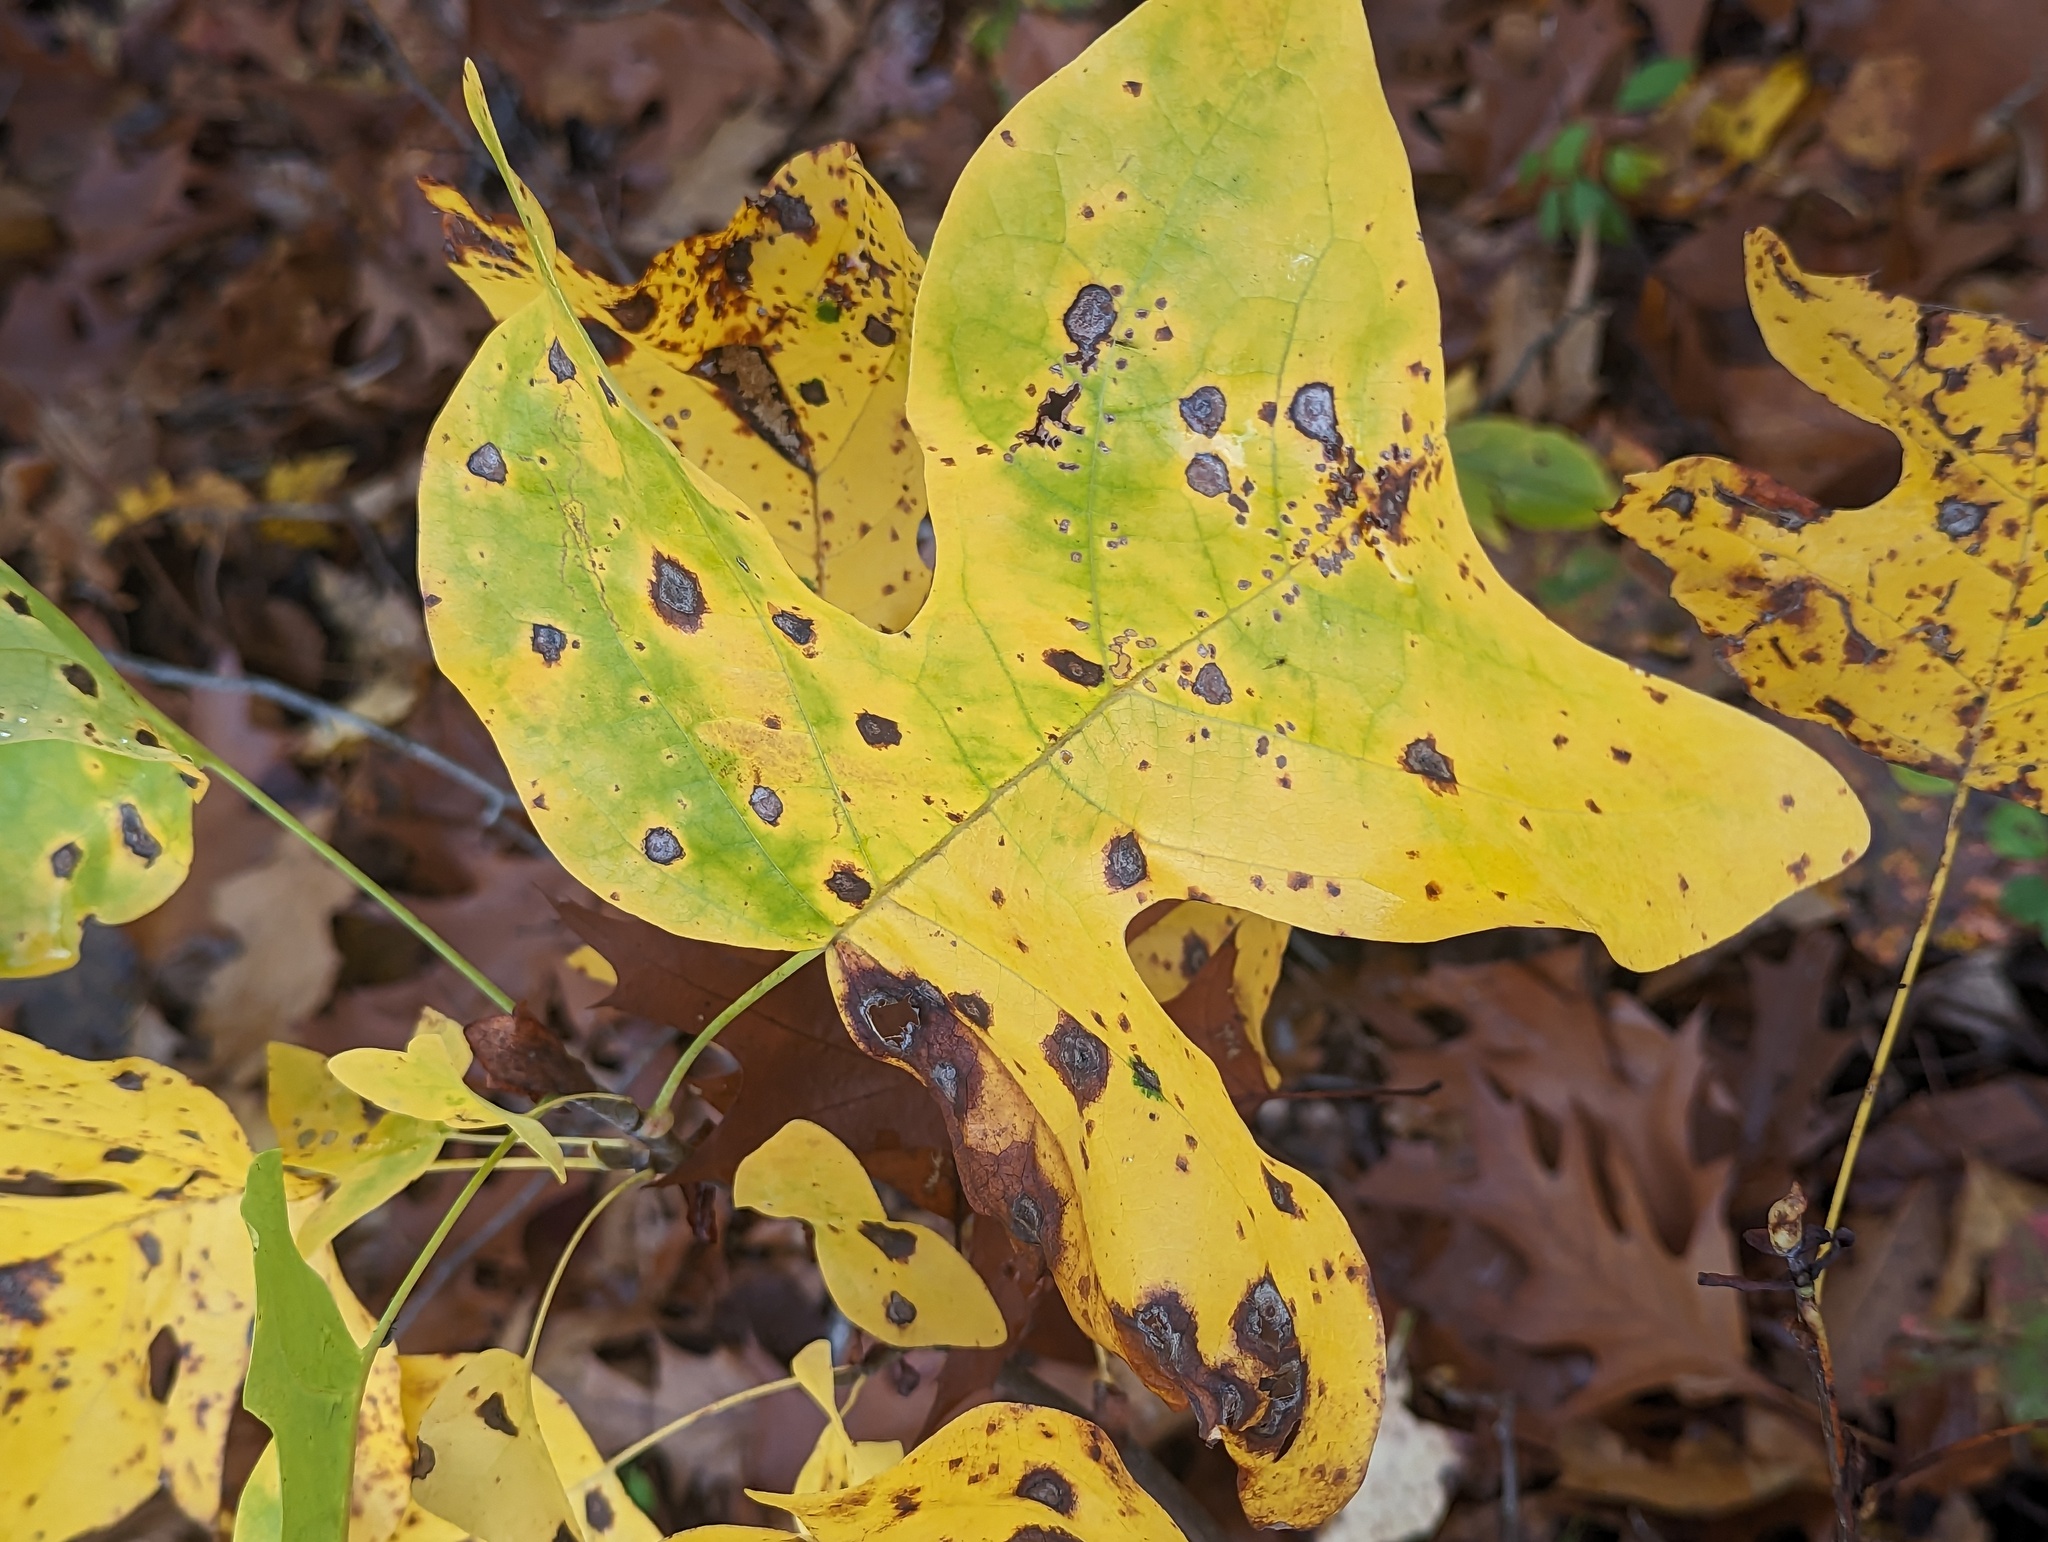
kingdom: Plantae
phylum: Tracheophyta
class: Magnoliopsida
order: Magnoliales
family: Magnoliaceae
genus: Liriodendron
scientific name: Liriodendron tulipifera
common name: Tulip tree
